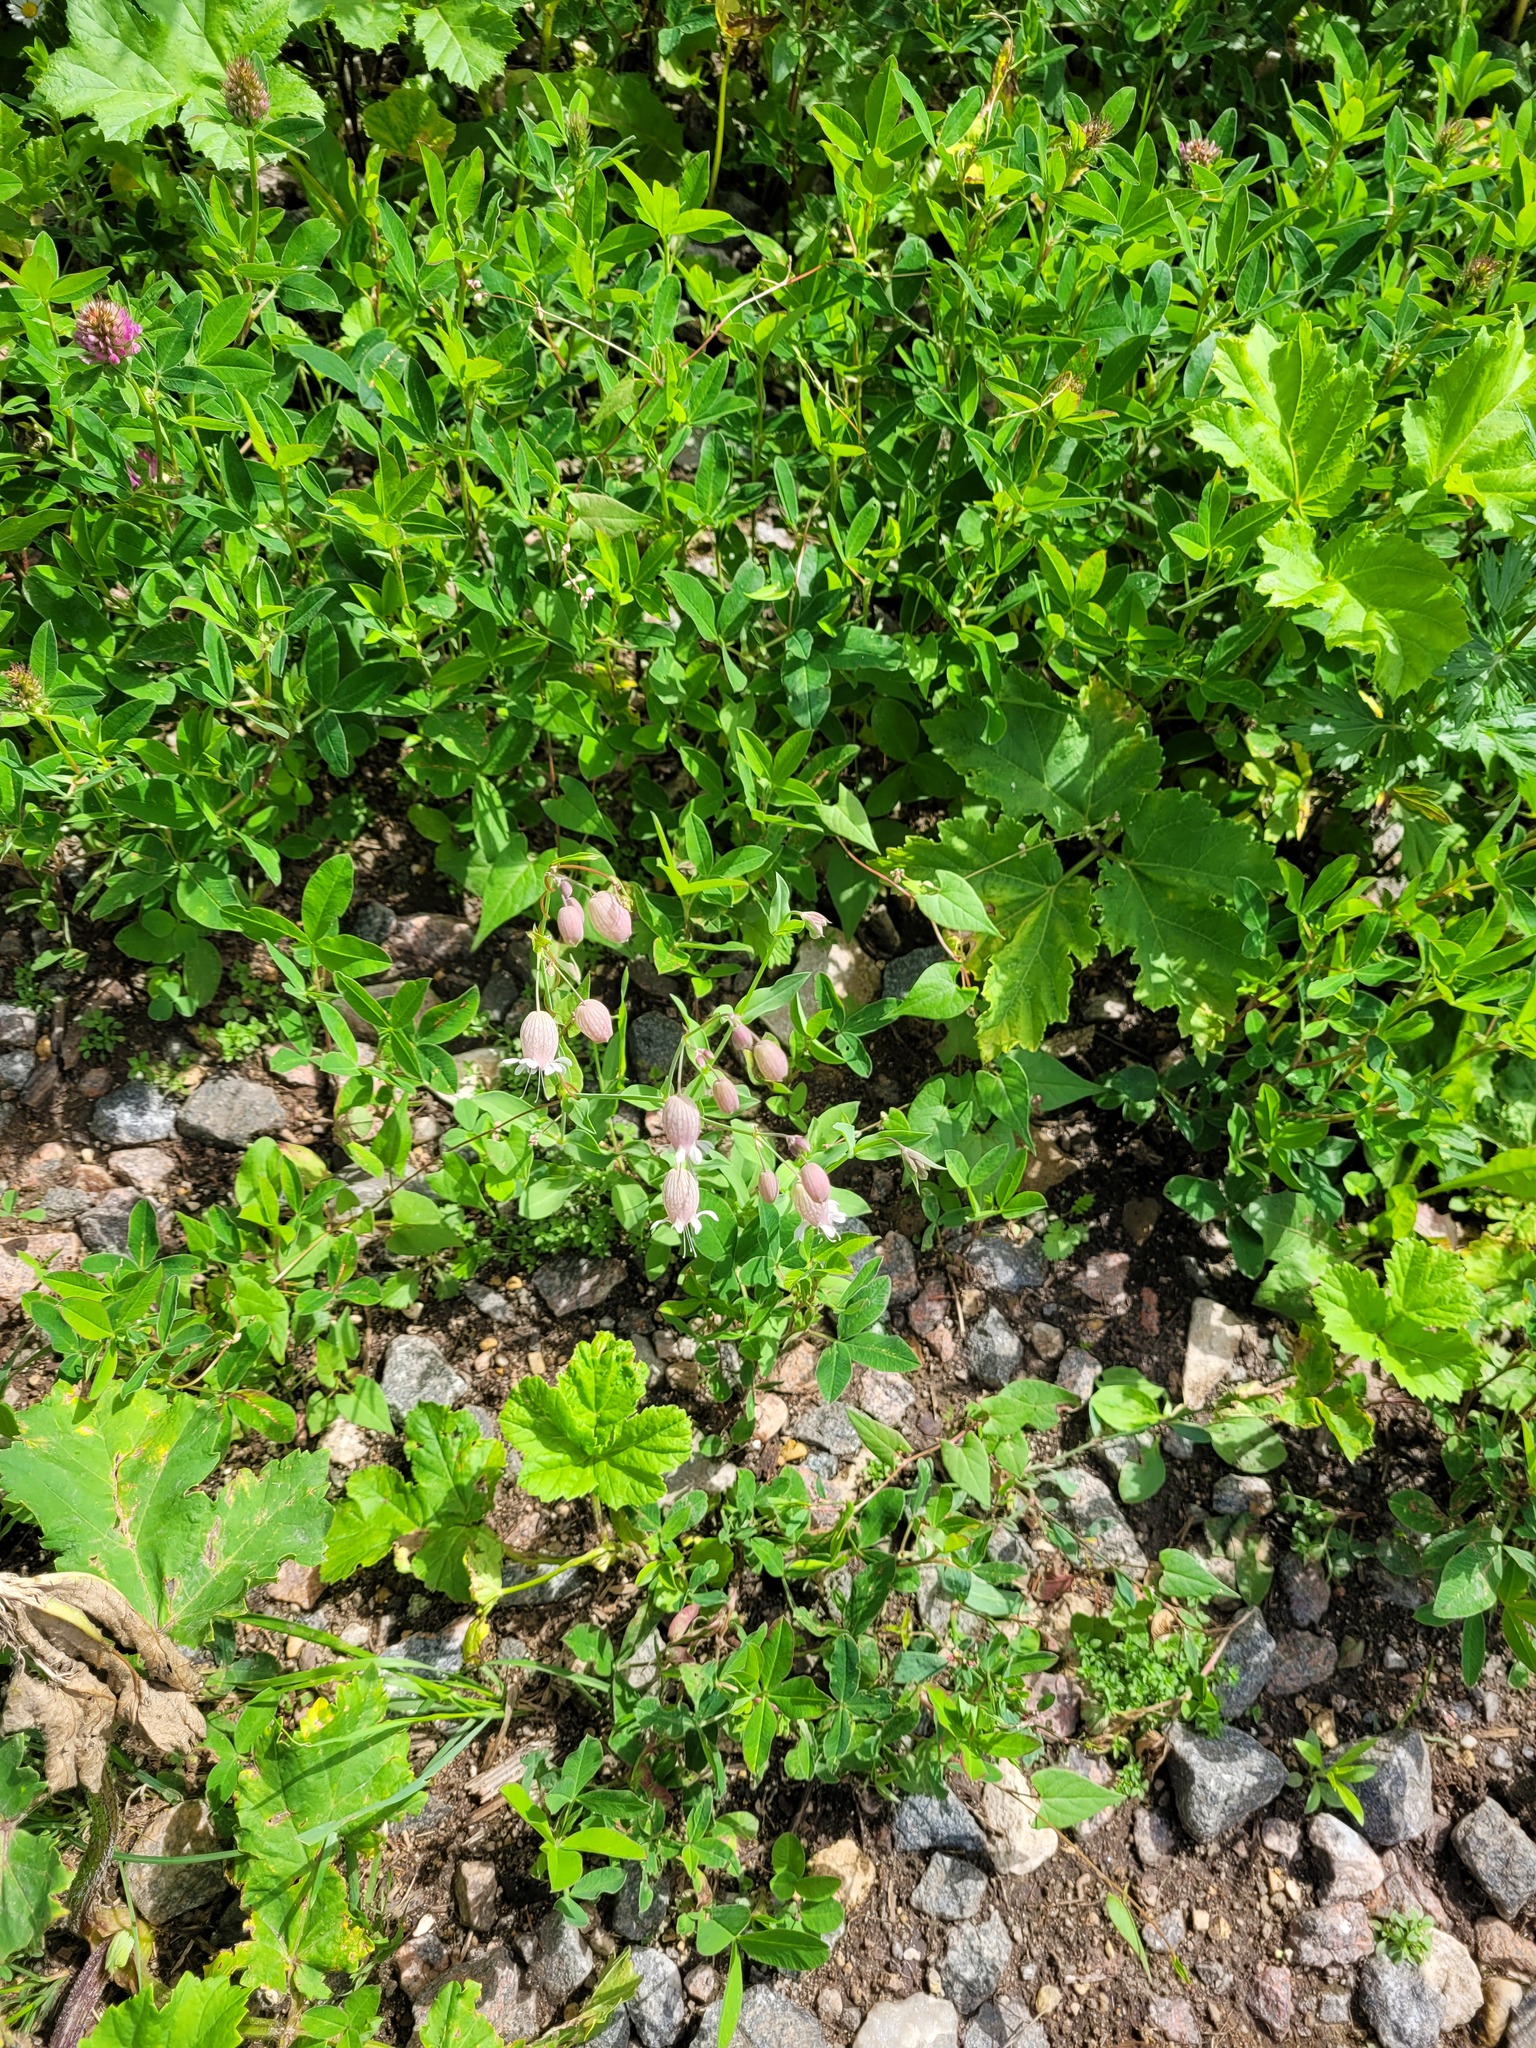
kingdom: Plantae
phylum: Tracheophyta
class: Magnoliopsida
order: Caryophyllales
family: Caryophyllaceae
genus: Silene
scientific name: Silene vulgaris
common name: Bladder campion
